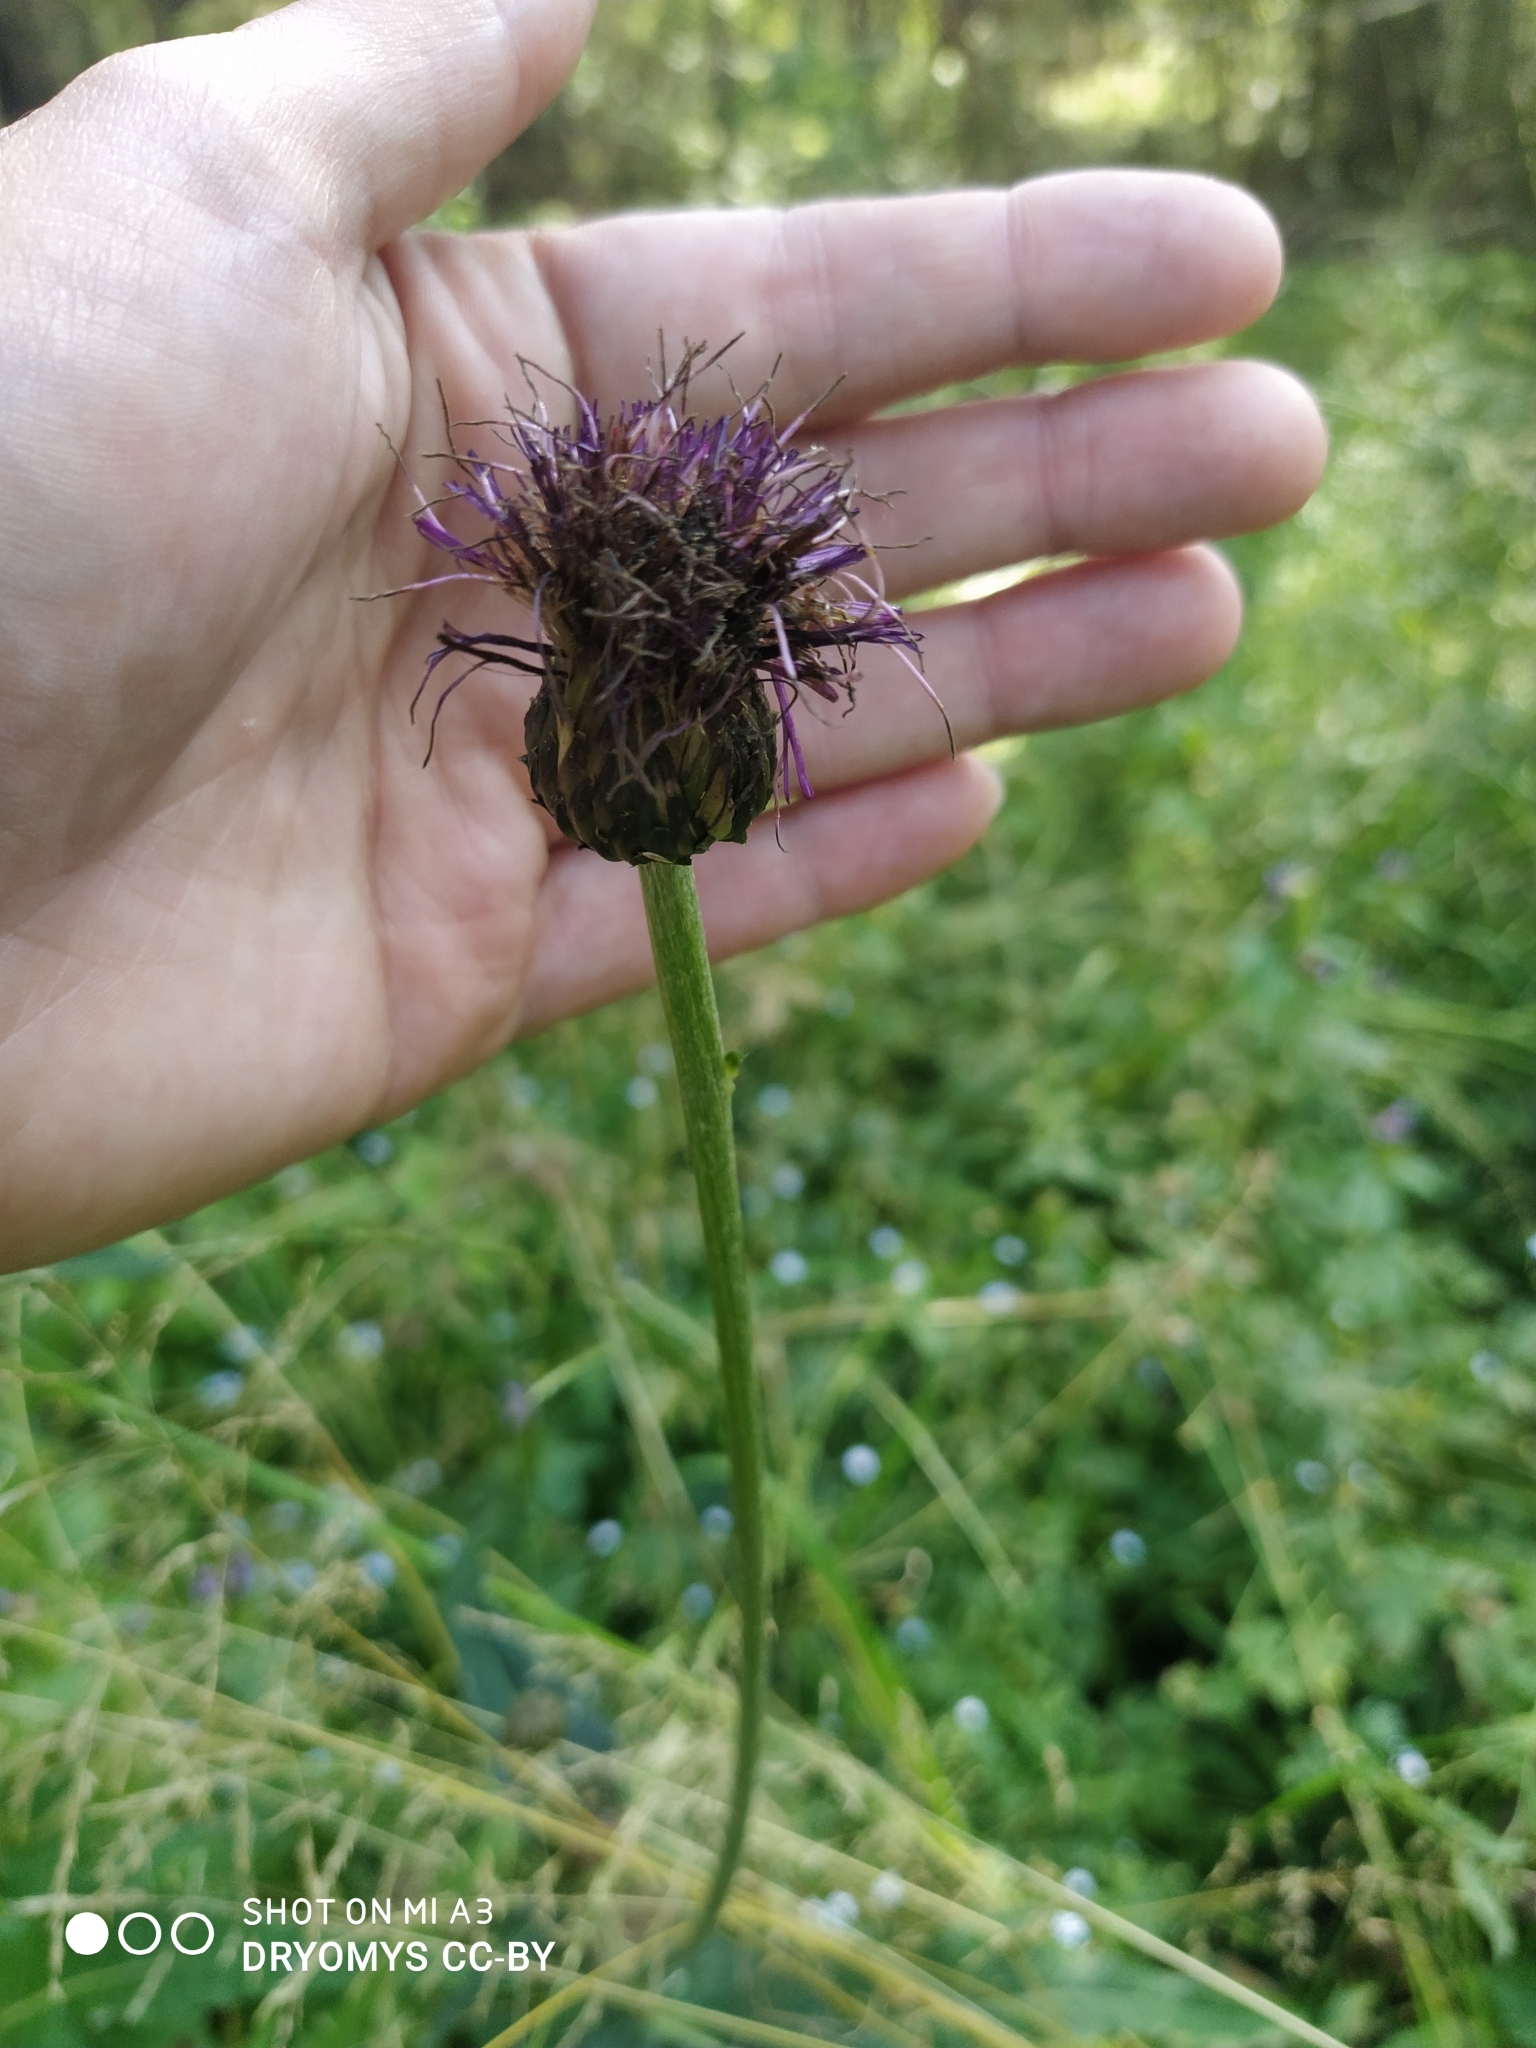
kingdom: Plantae
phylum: Tracheophyta
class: Magnoliopsida
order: Asterales
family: Asteraceae
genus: Cirsium
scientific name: Cirsium heterophyllum
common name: Melancholy thistle
